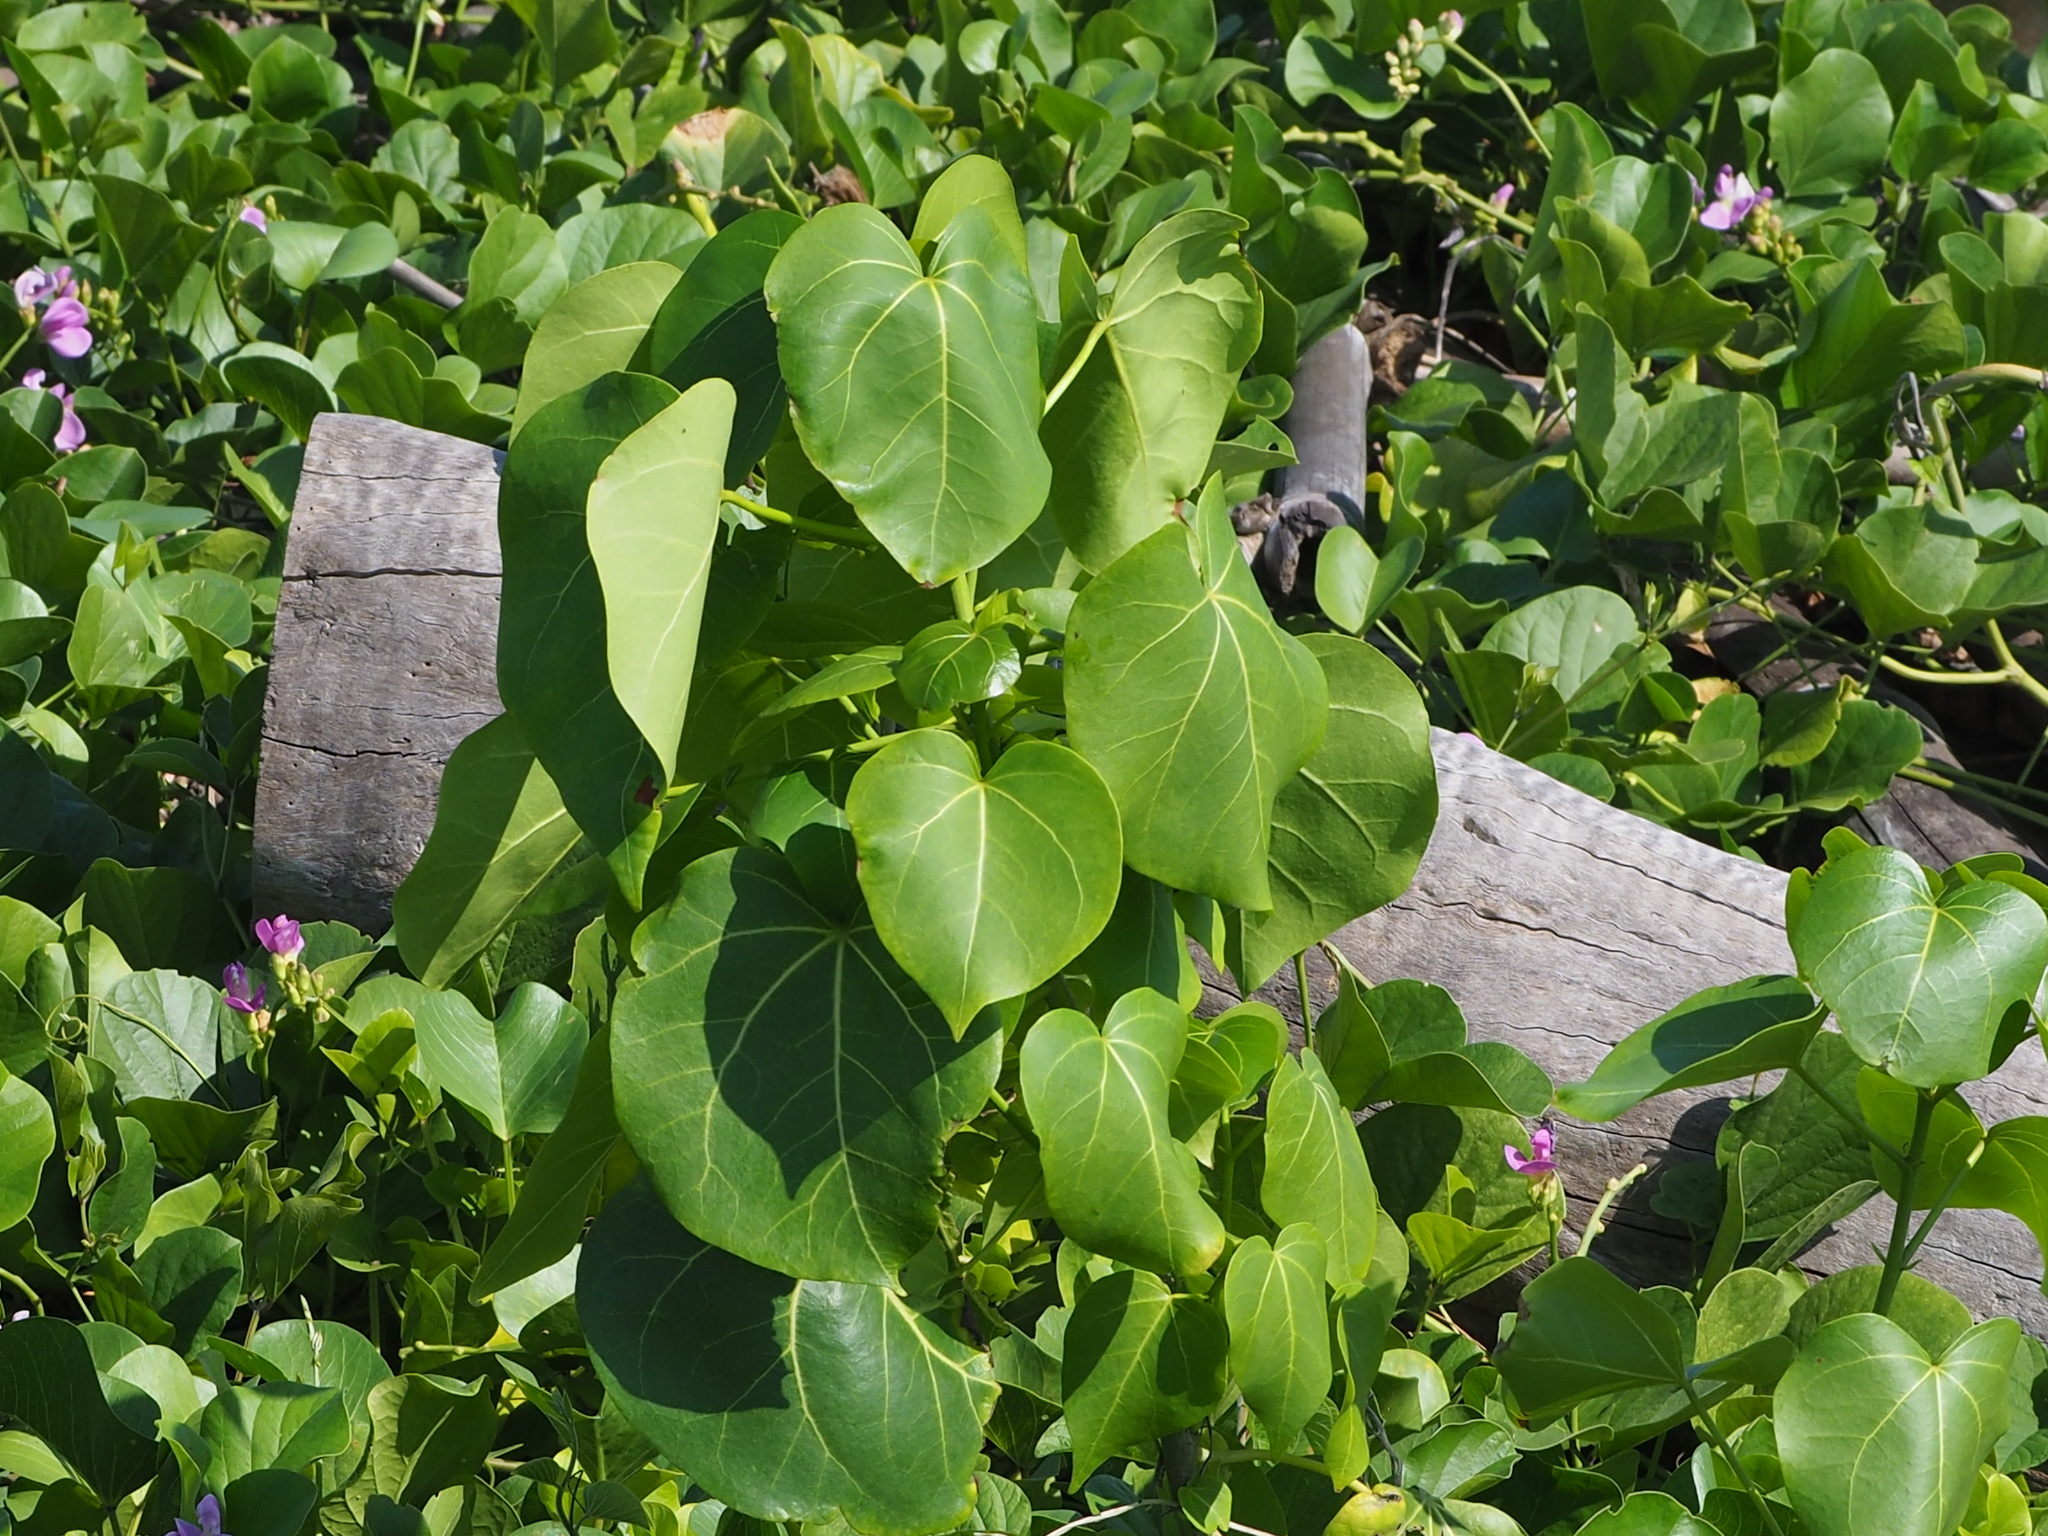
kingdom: Plantae
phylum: Tracheophyta
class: Magnoliopsida
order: Malvales
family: Malvaceae
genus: Talipariti
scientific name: Talipariti tiliaceum
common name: Sea hibiscus
